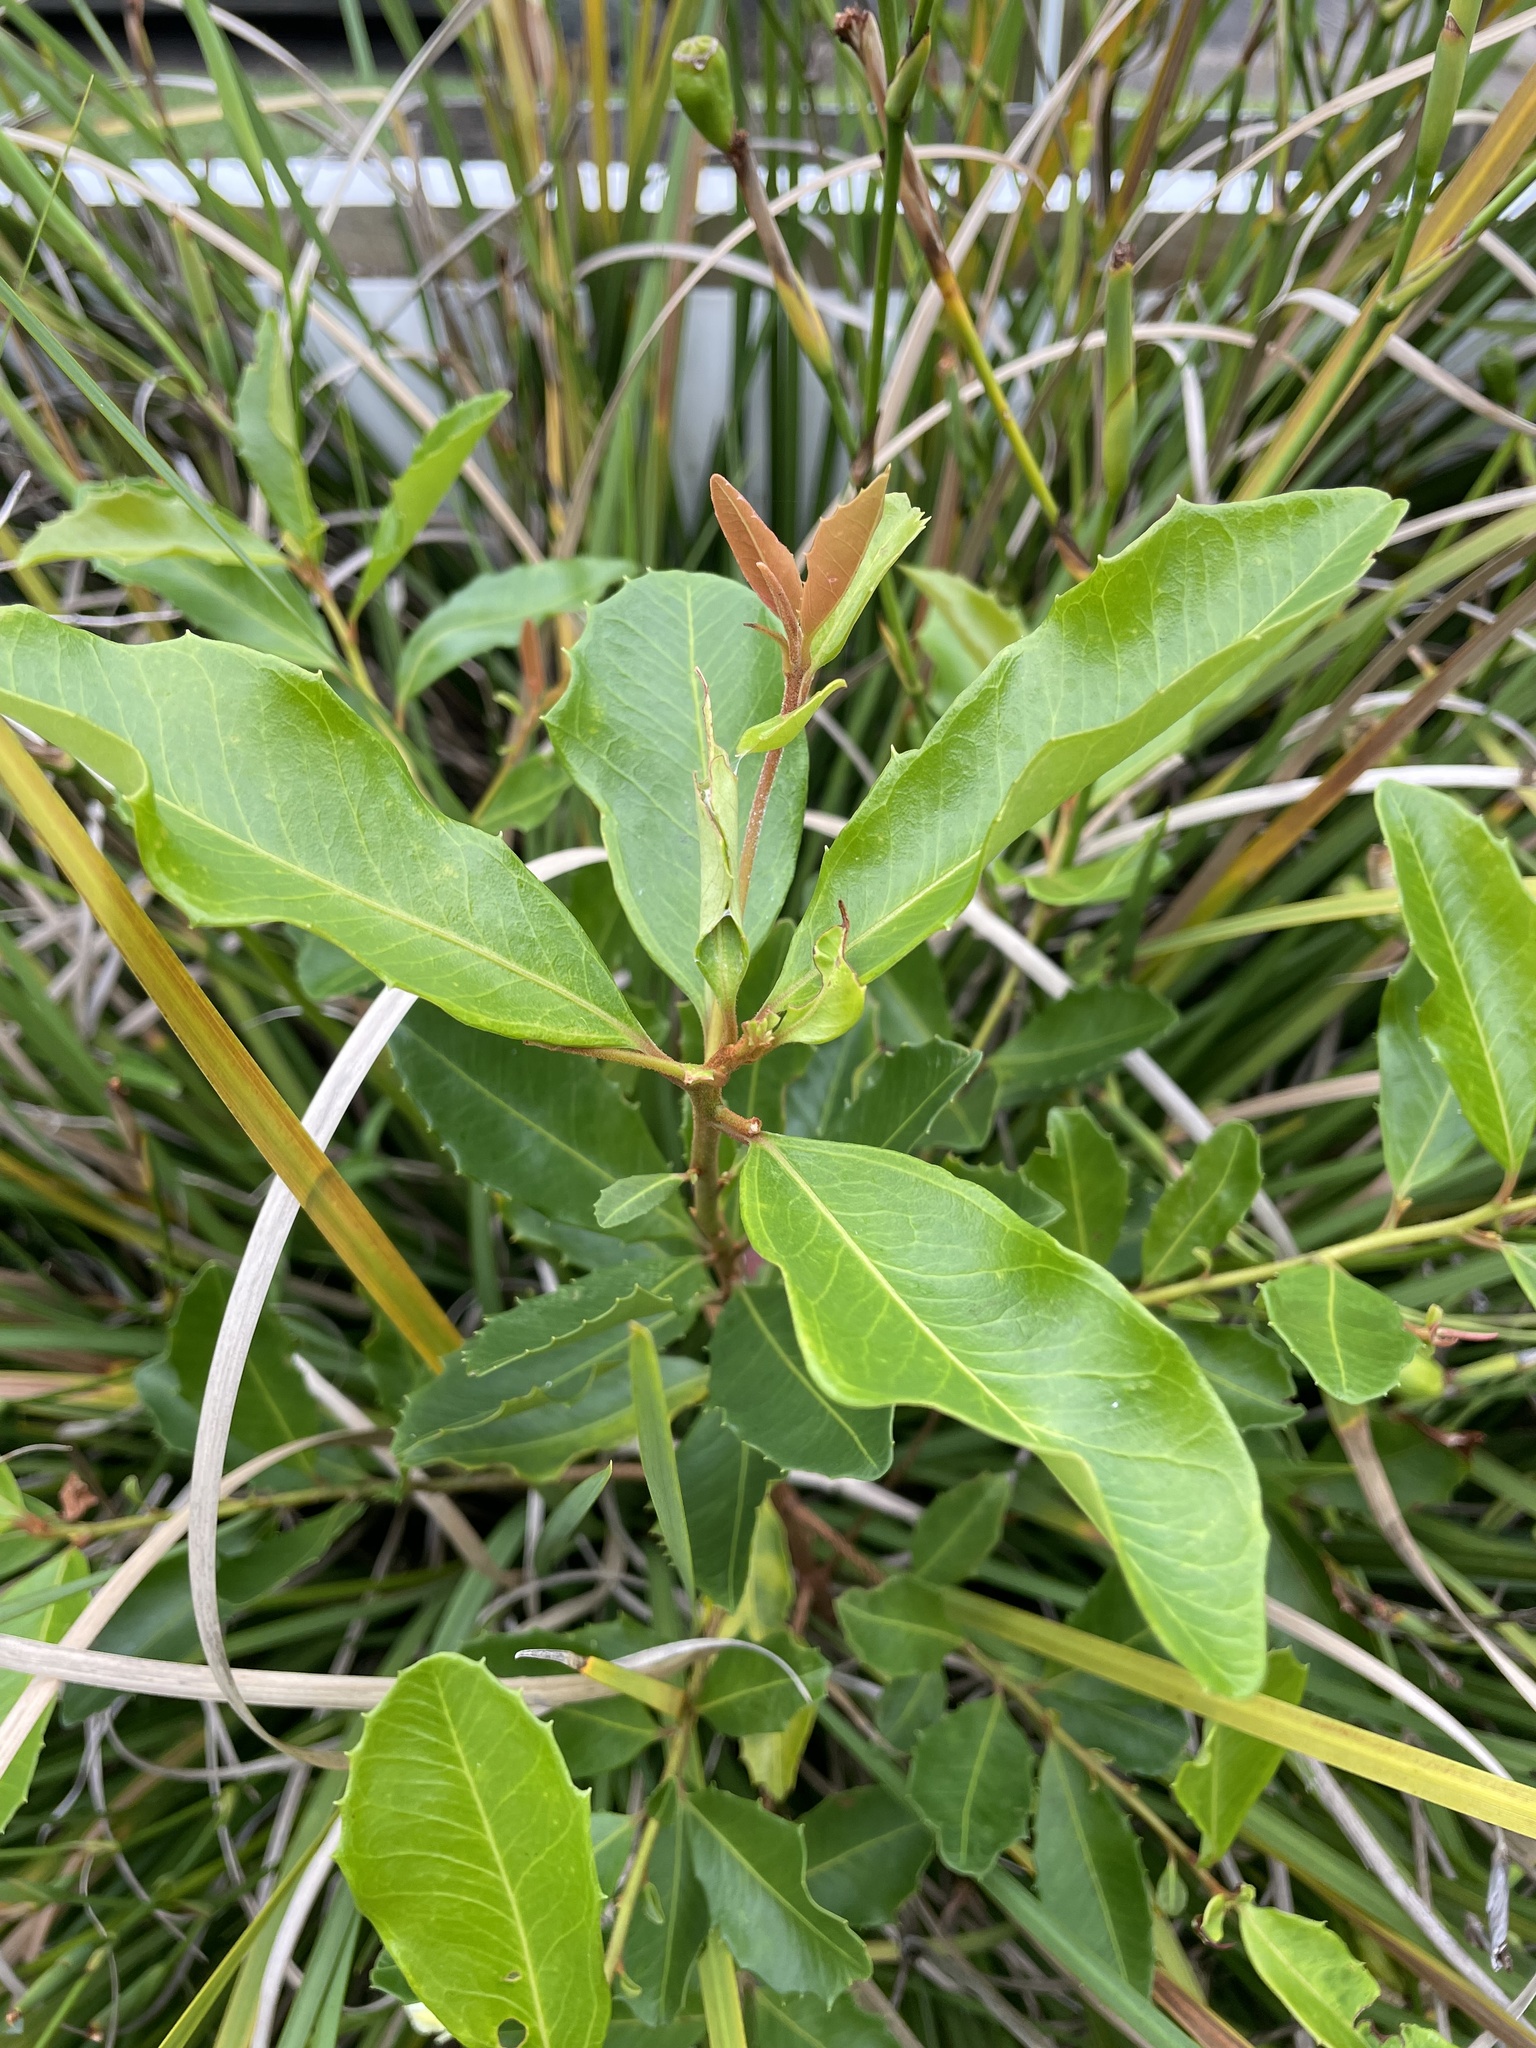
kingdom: Plantae
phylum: Tracheophyta
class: Magnoliopsida
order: Ericales
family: Primulaceae
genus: Myrsine
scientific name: Myrsine howittiana
